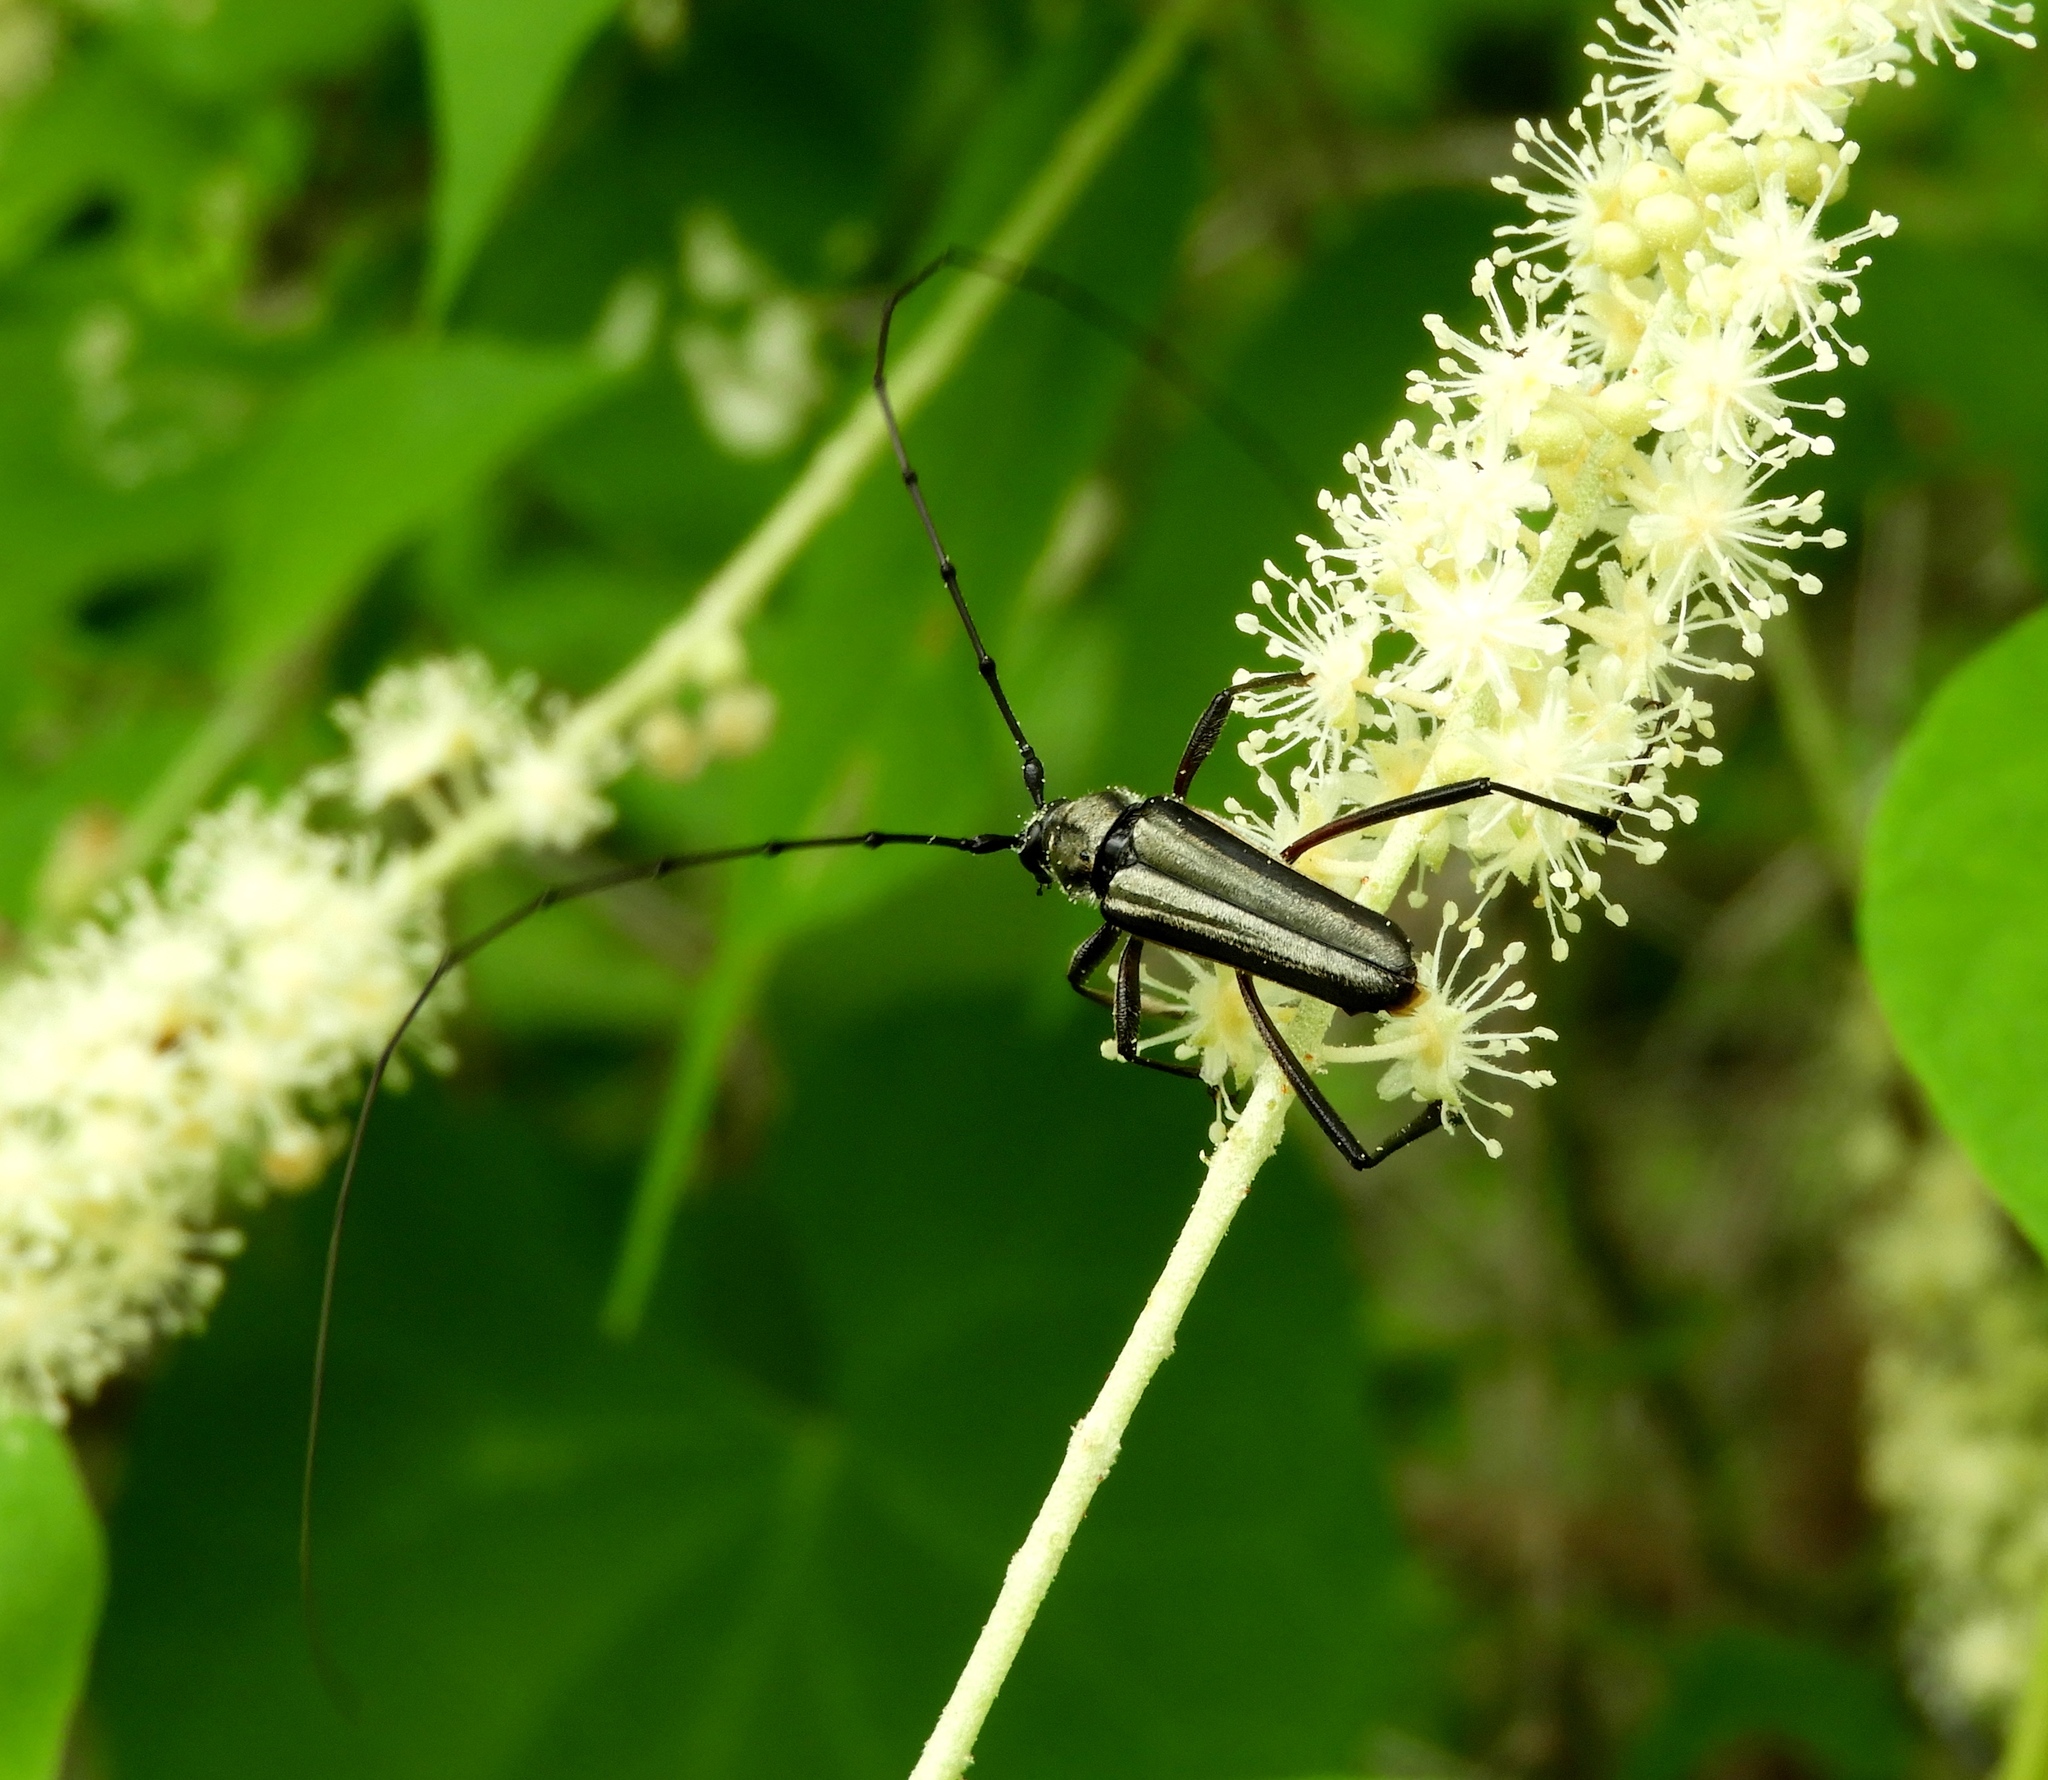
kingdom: Animalia
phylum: Arthropoda
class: Insecta
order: Coleoptera
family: Cerambycidae
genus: Pseudodeltaspis
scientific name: Pseudodeltaspis cyanea
